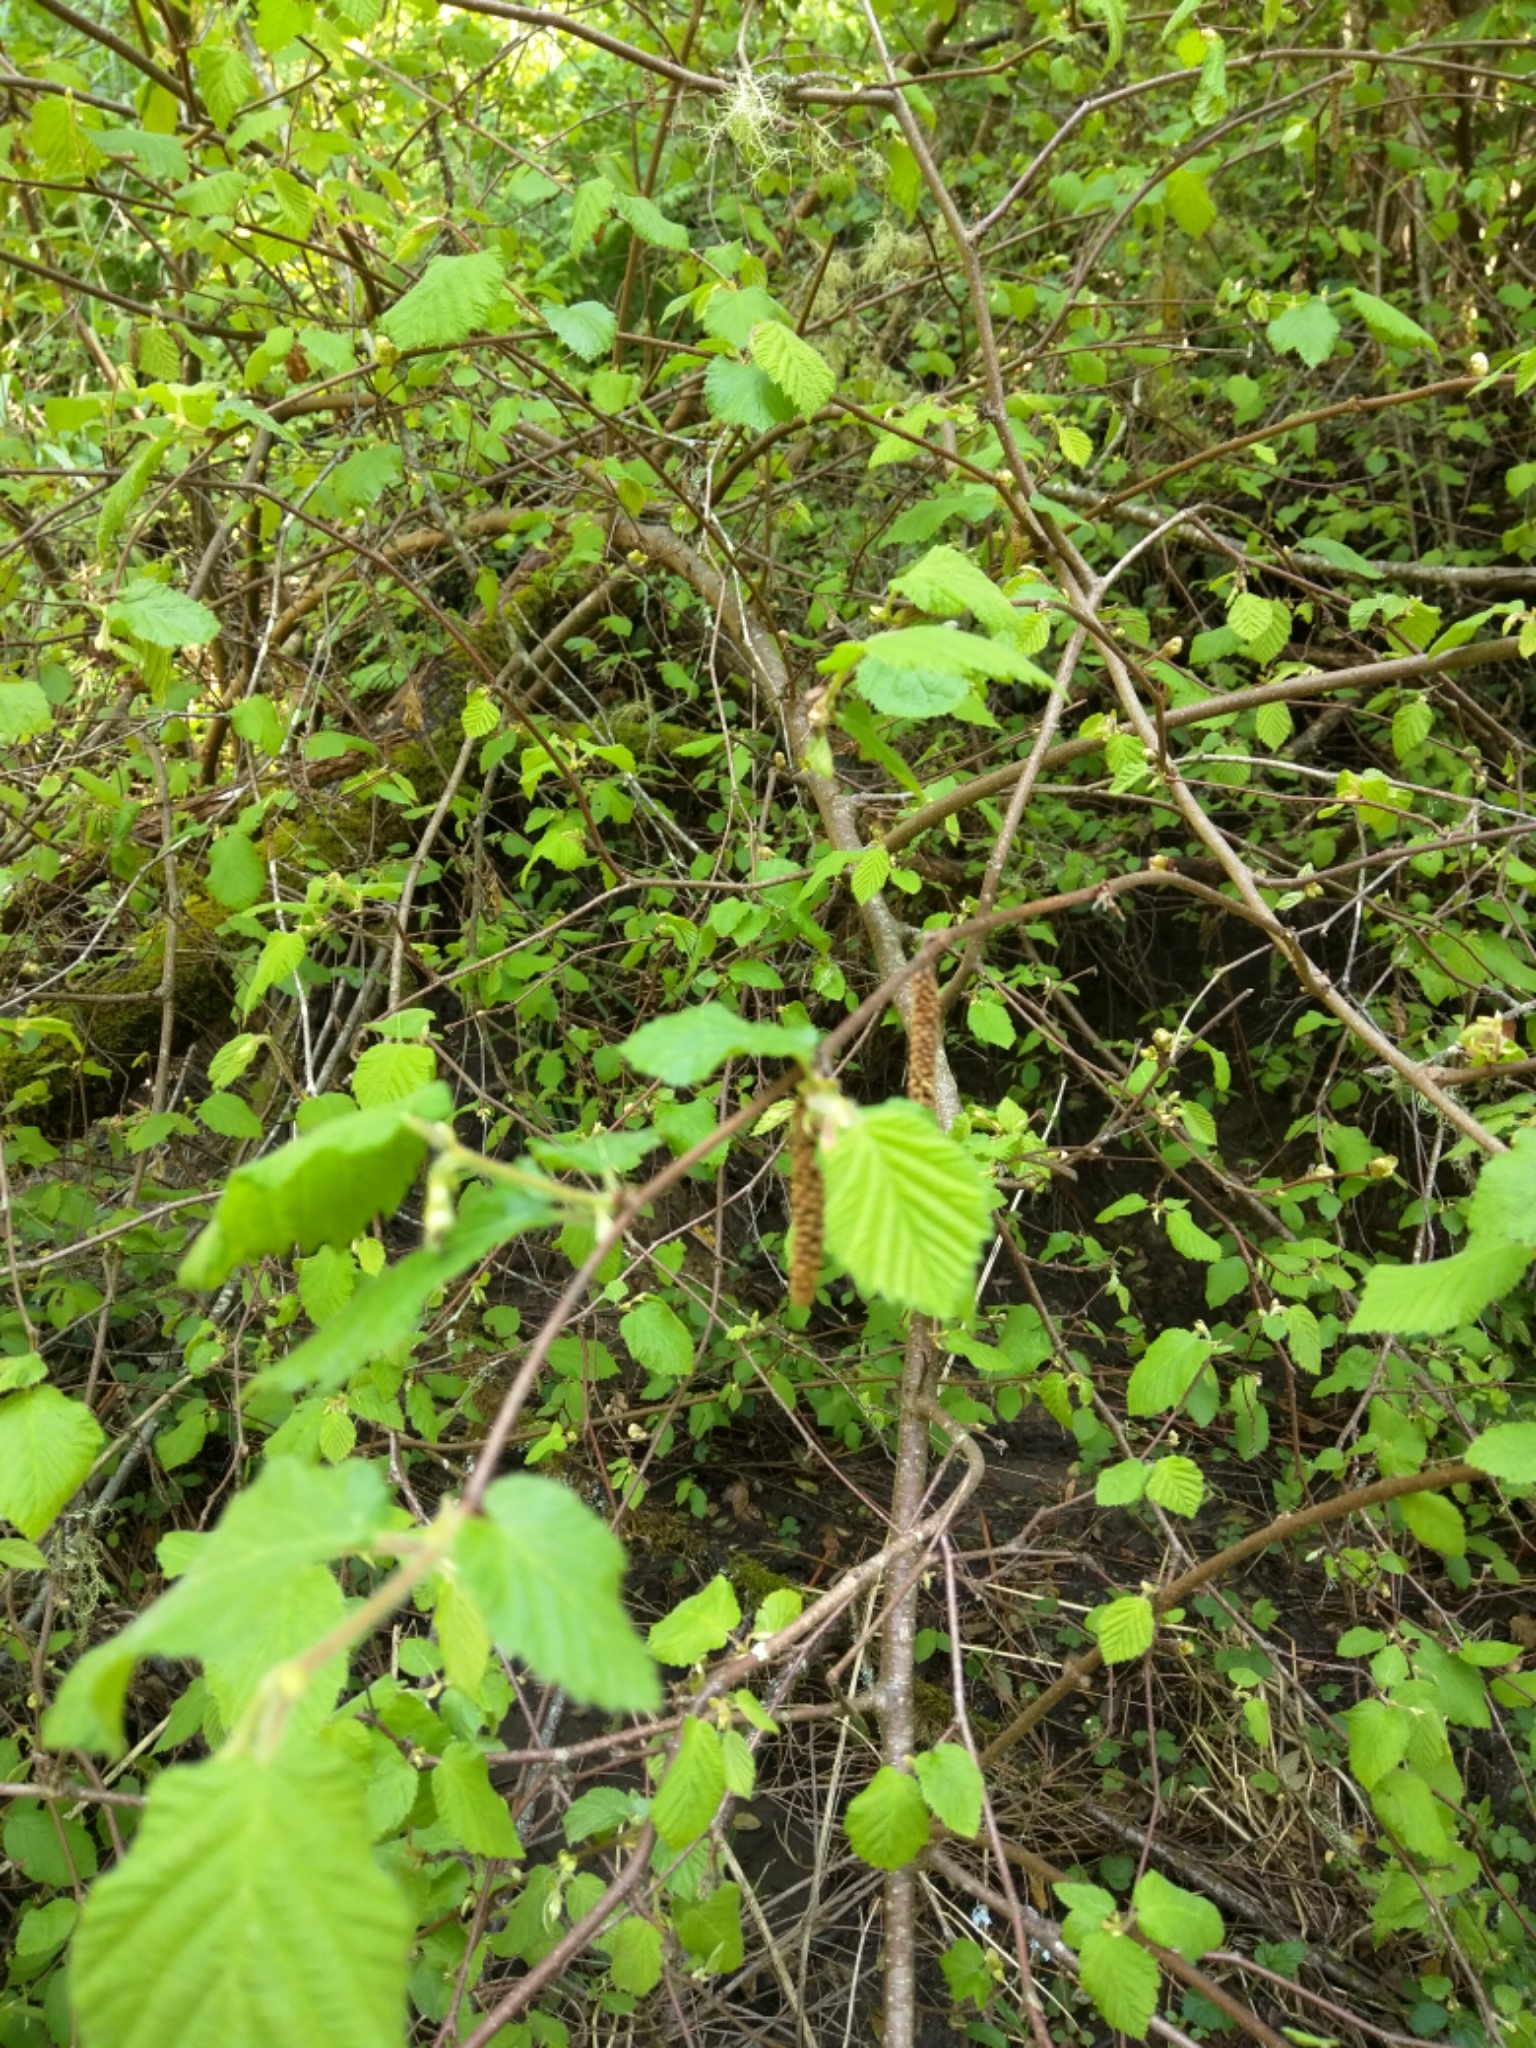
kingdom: Plantae
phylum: Tracheophyta
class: Magnoliopsida
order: Fagales
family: Betulaceae
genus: Corylus
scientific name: Corylus cornuta
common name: Beaked hazel
